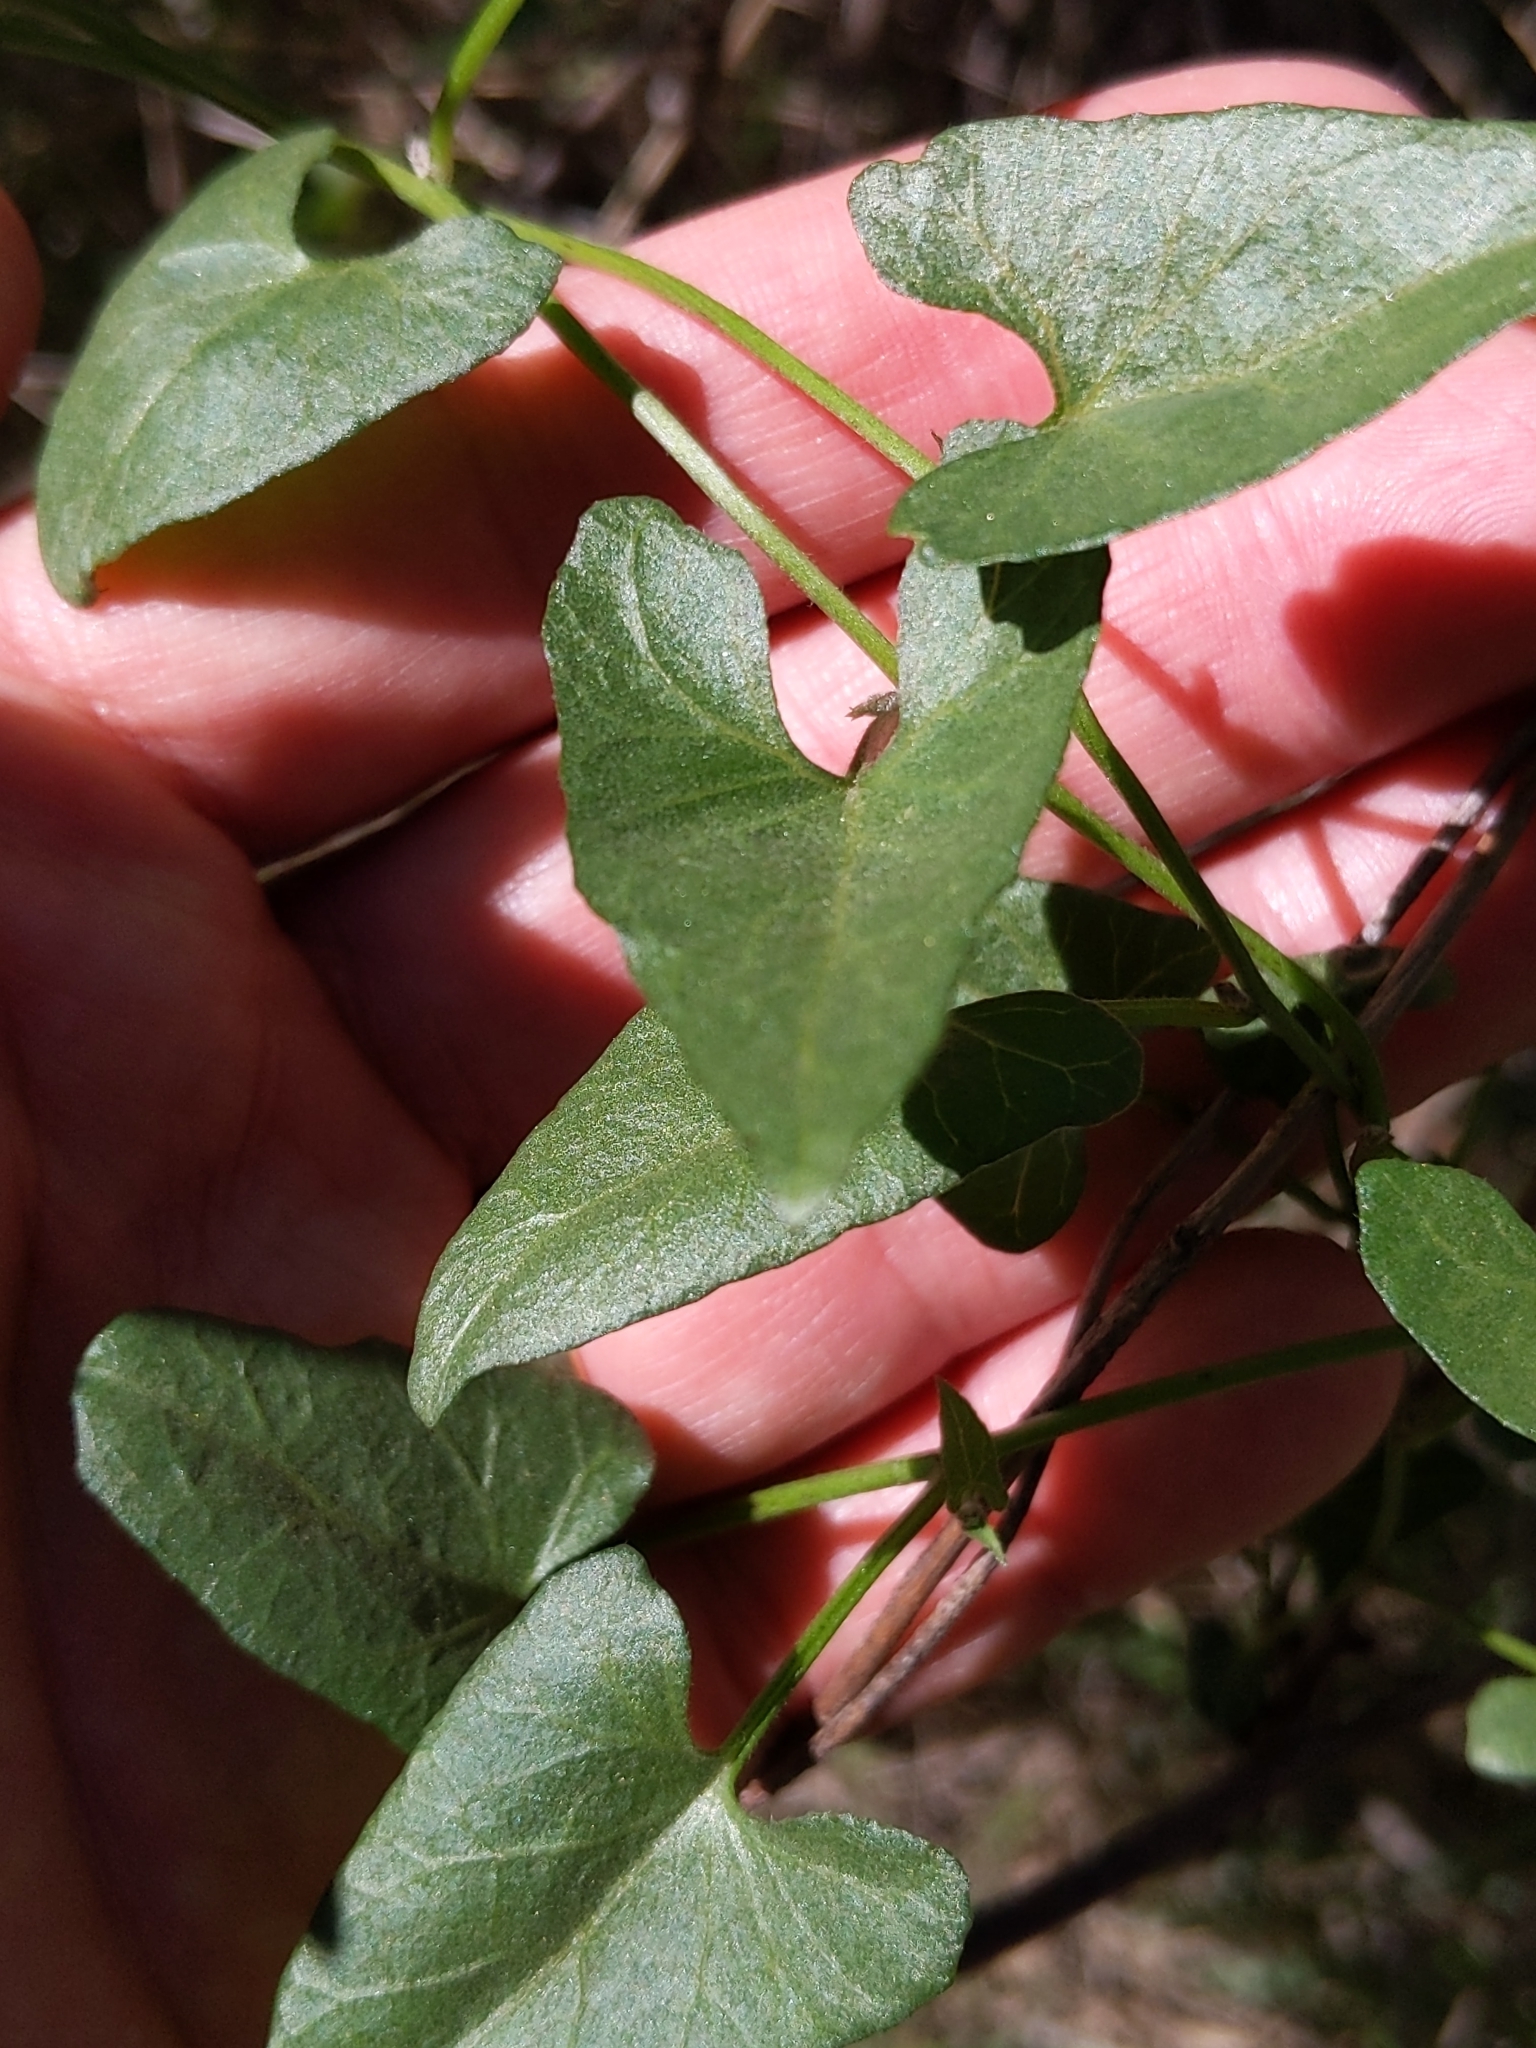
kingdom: Plantae
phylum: Tracheophyta
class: Magnoliopsida
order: Solanales
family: Convolvulaceae
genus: Calystegia
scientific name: Calystegia macrostegia
